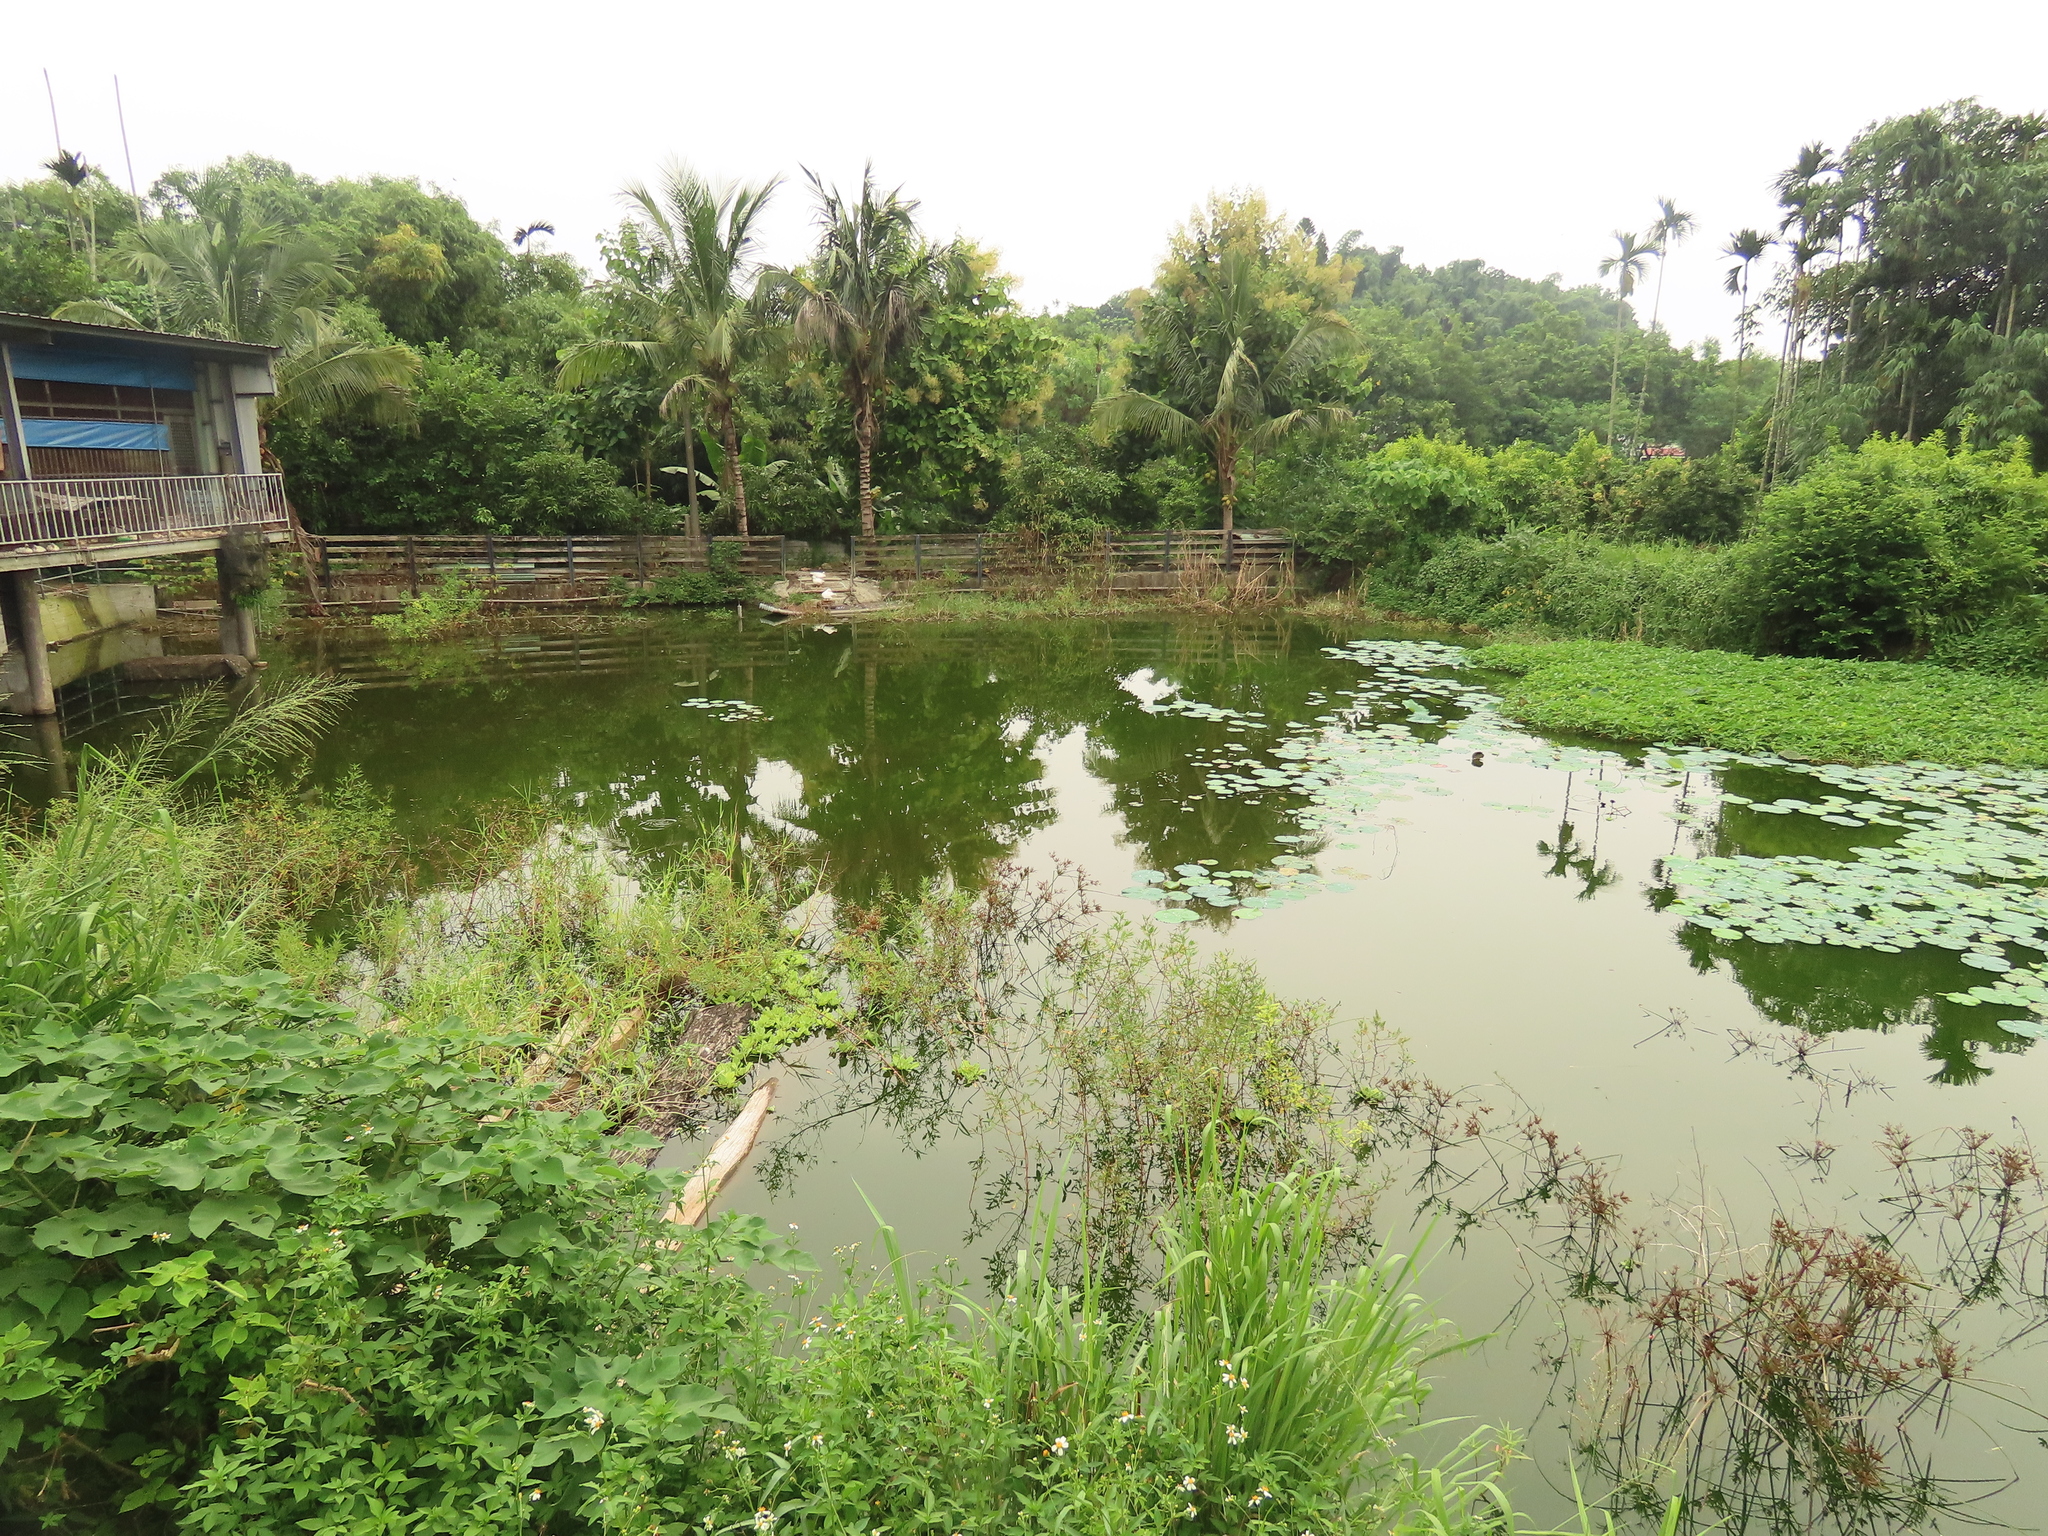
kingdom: Plantae
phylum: Tracheophyta
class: Magnoliopsida
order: Myrtales
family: Onagraceae
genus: Ludwigia
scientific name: Ludwigia octovalvis
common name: Water-primrose
